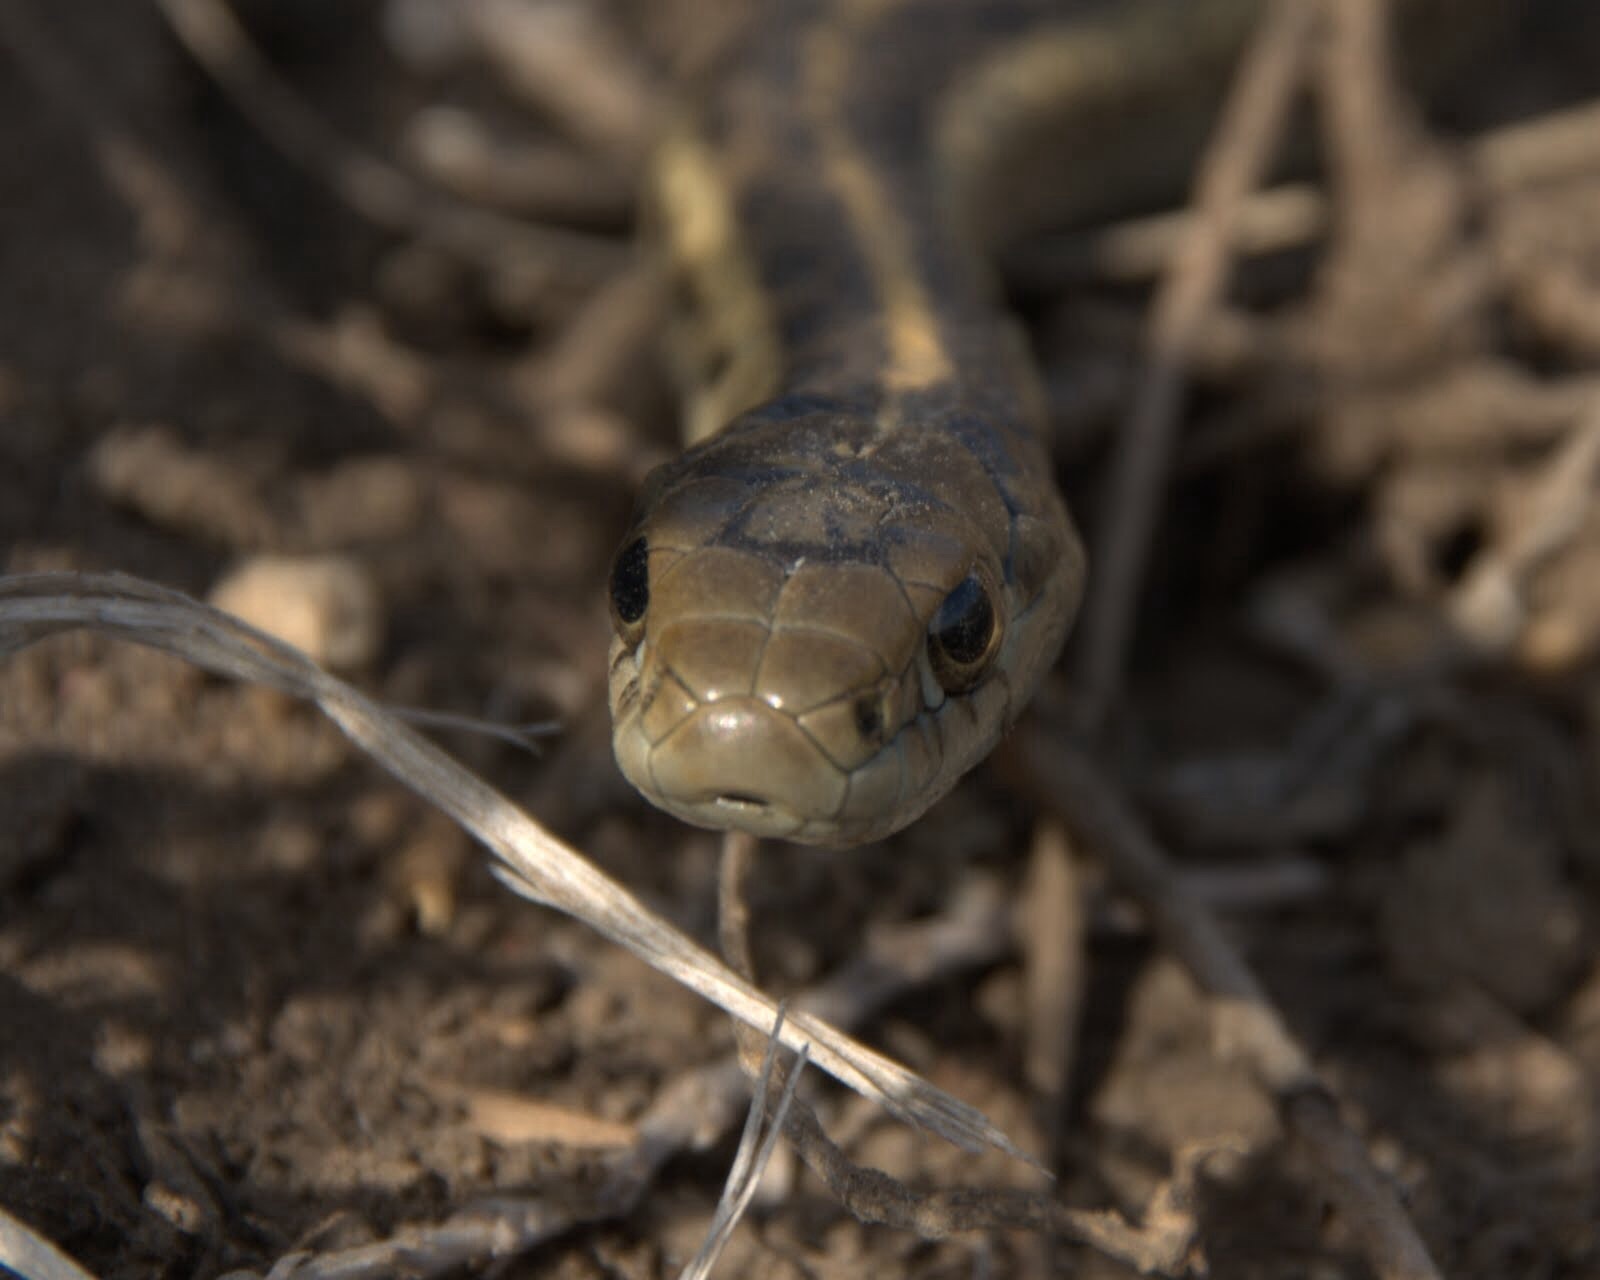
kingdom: Animalia
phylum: Chordata
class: Squamata
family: Colubridae
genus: Thamnophis
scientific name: Thamnophis elegans
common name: Western terrestrial garter snake
